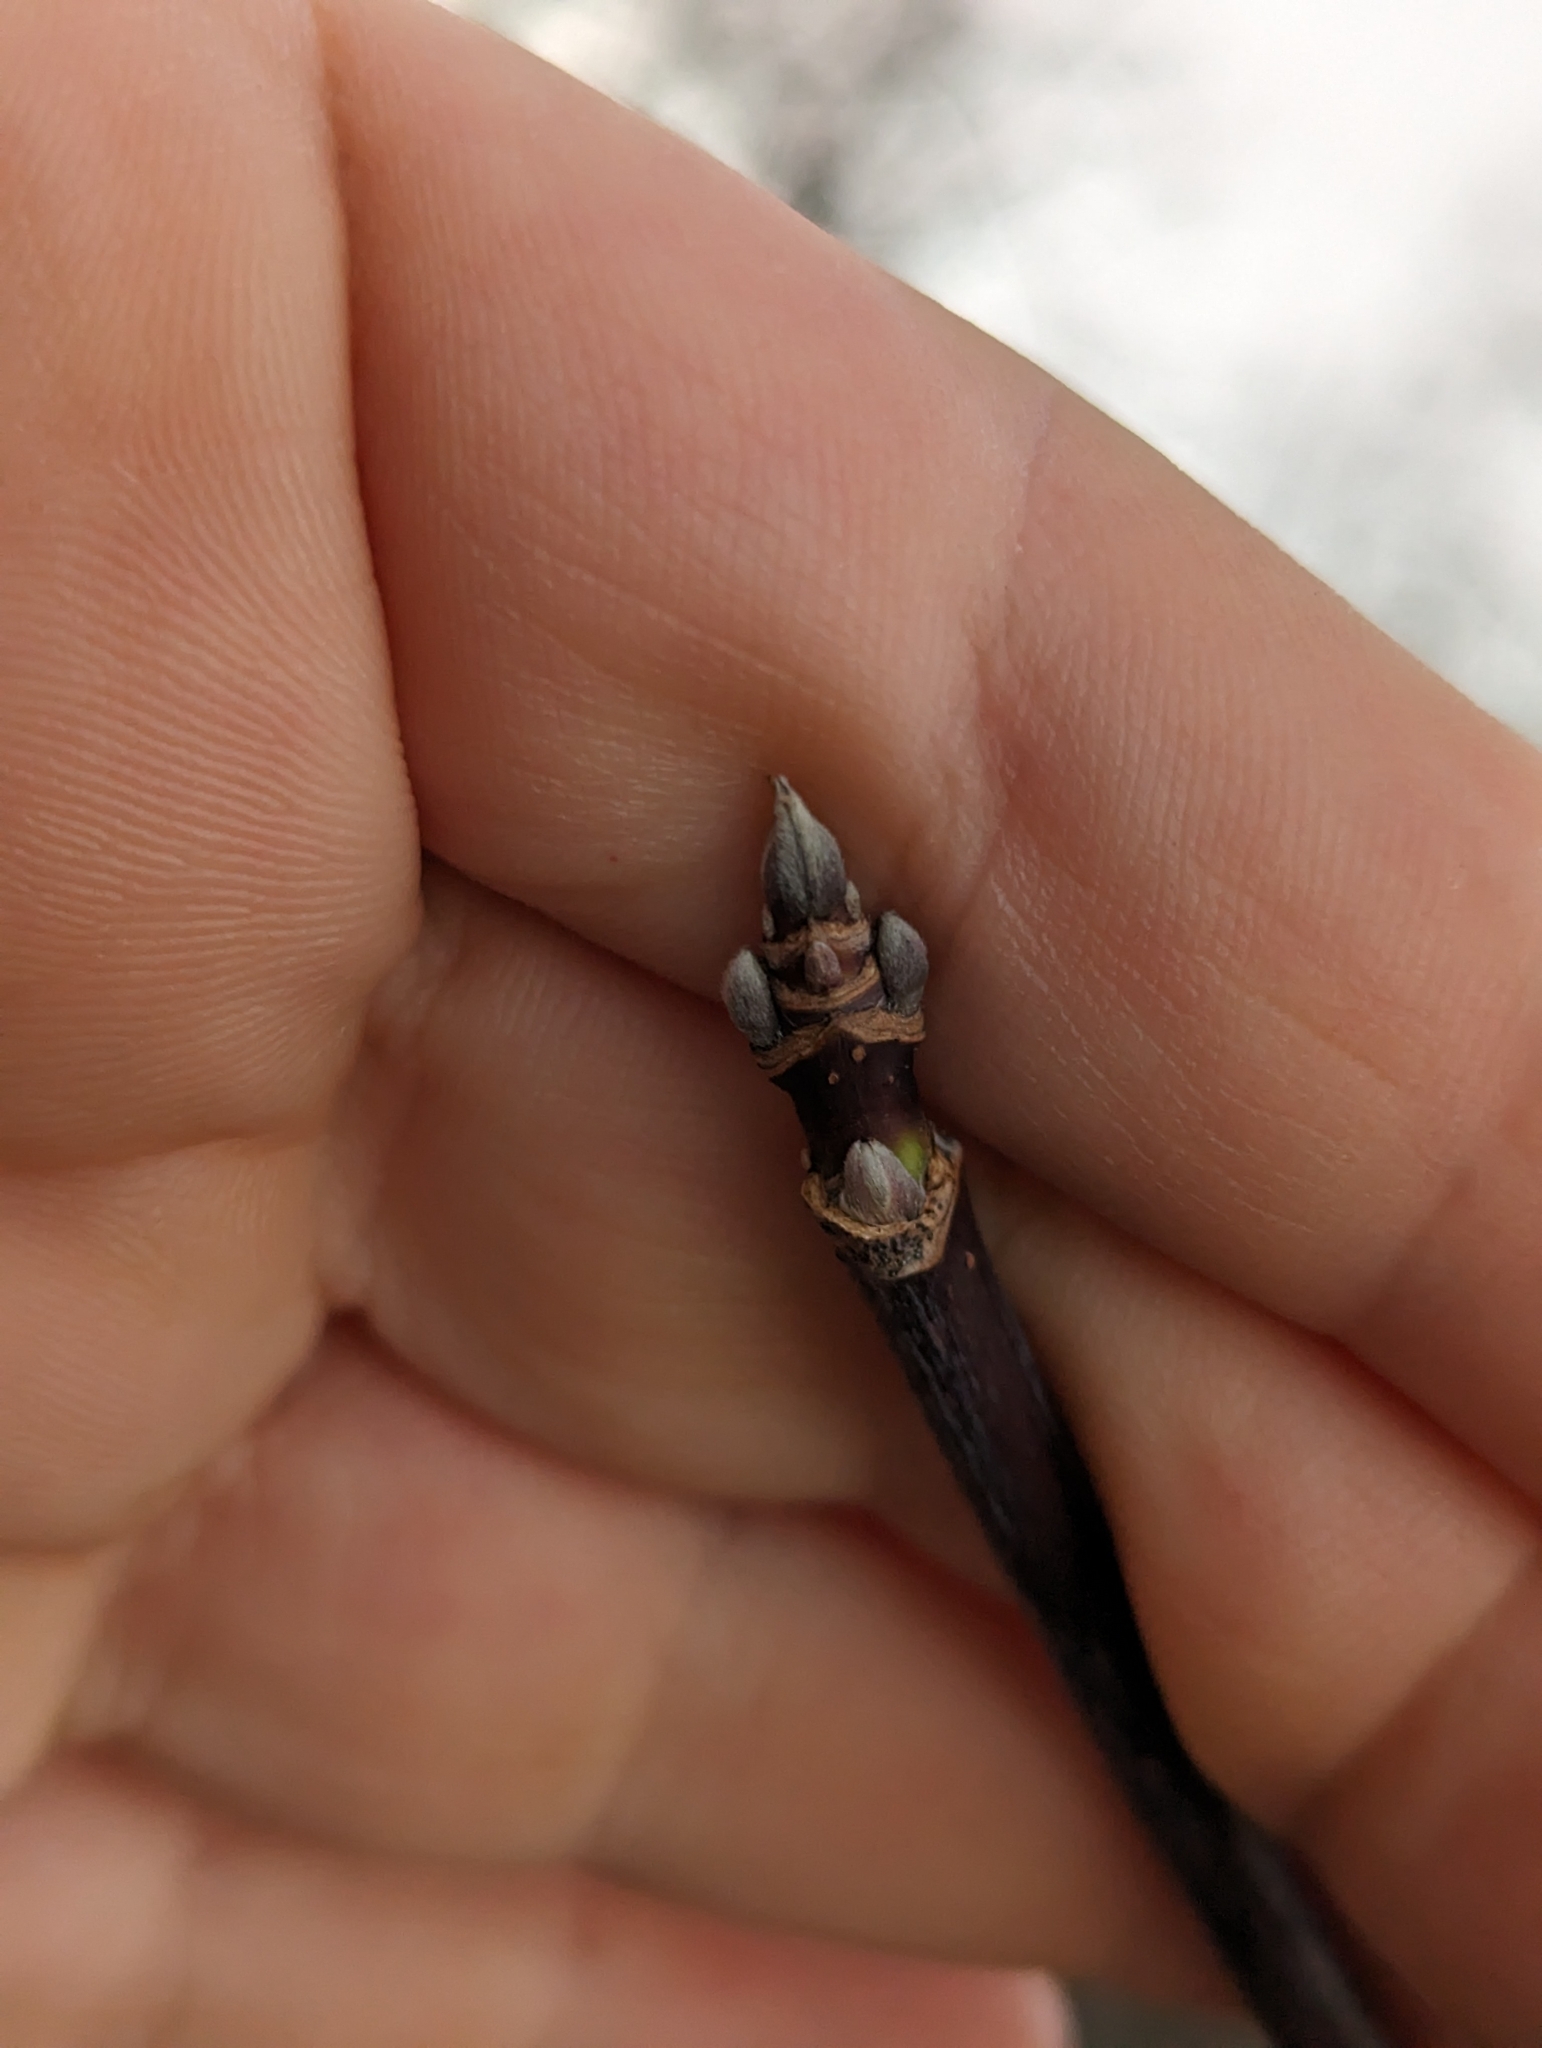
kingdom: Plantae
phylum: Tracheophyta
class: Magnoliopsida
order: Sapindales
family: Sapindaceae
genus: Acer
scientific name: Acer negundo
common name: Ashleaf maple
